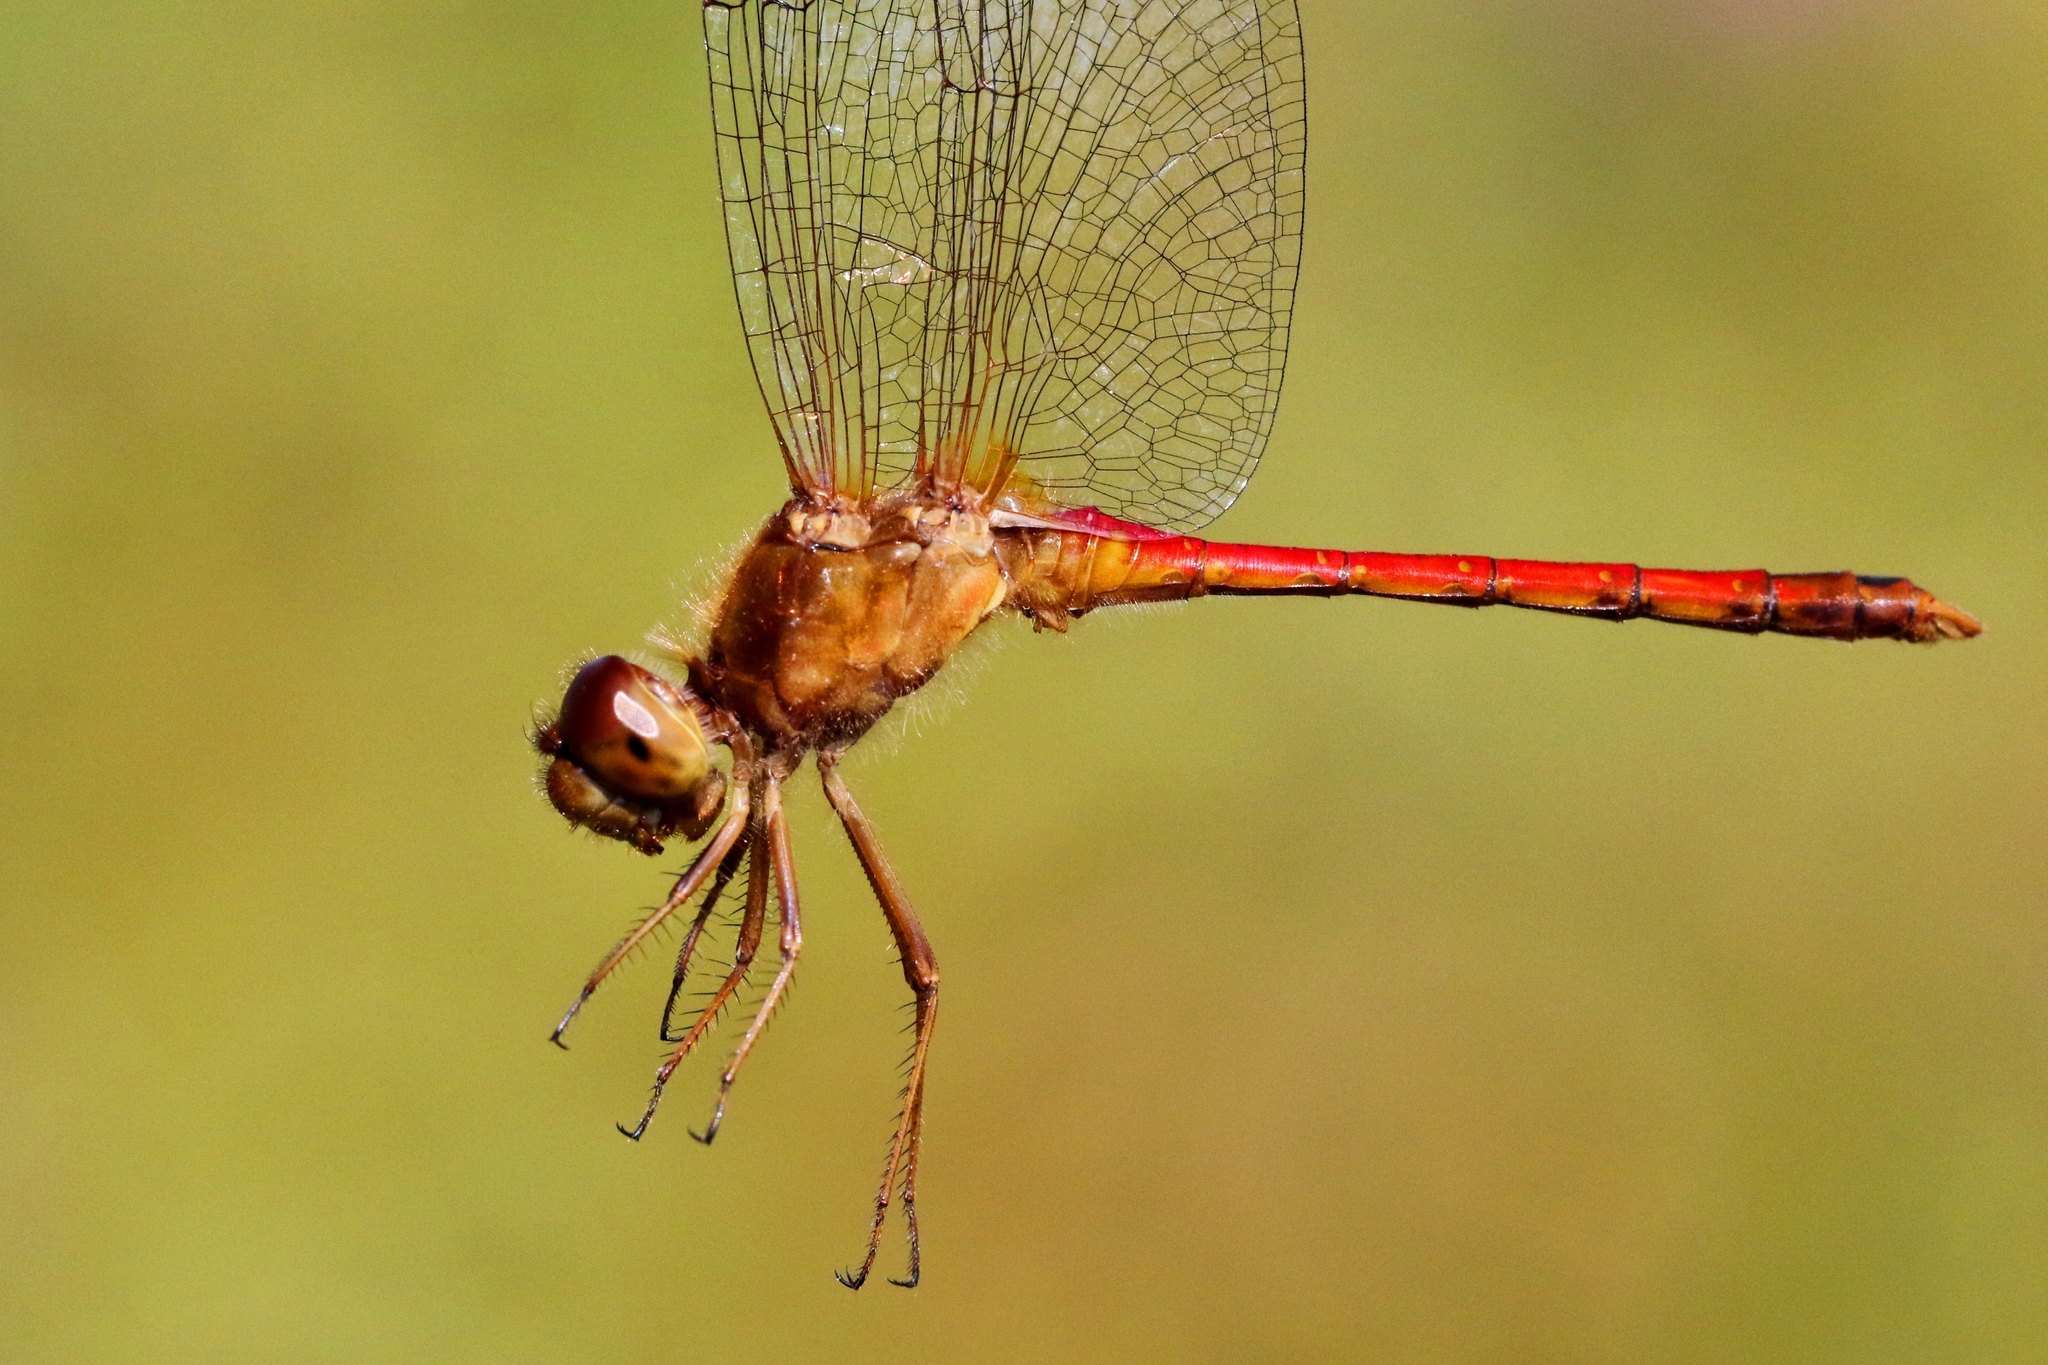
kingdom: Animalia
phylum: Arthropoda
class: Insecta
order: Odonata
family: Libellulidae
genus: Sympetrum
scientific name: Sympetrum vicinum
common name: Autumn meadowhawk
